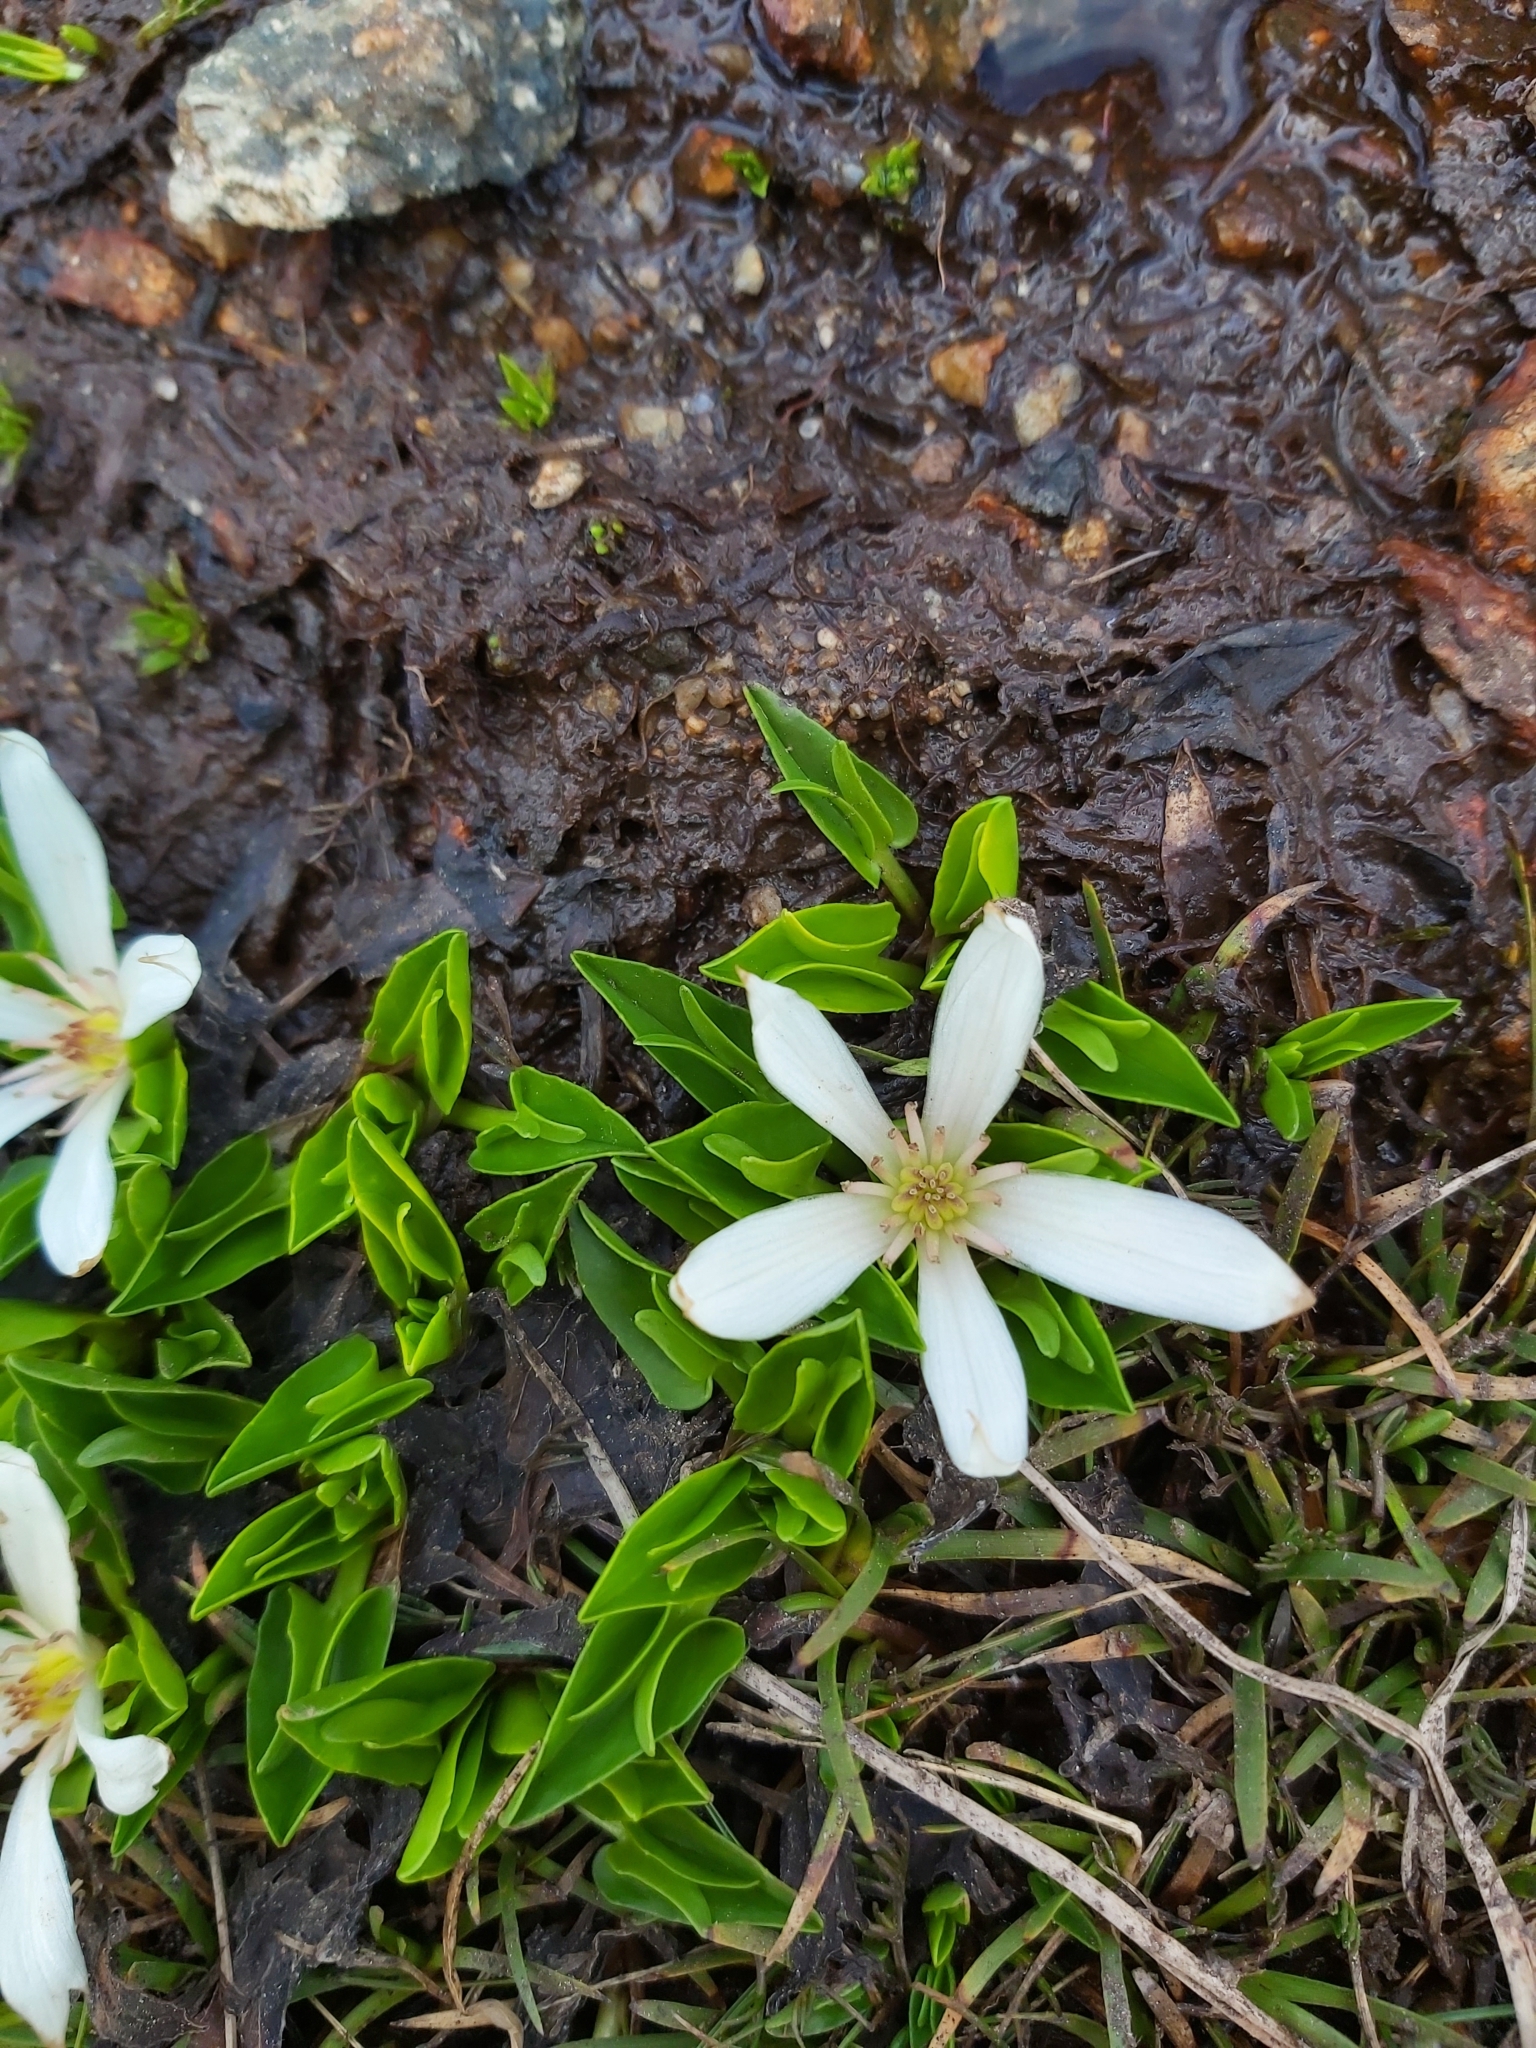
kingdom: Plantae
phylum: Tracheophyta
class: Magnoliopsida
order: Ranunculales
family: Ranunculaceae
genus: Caltha
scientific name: Caltha introloba
